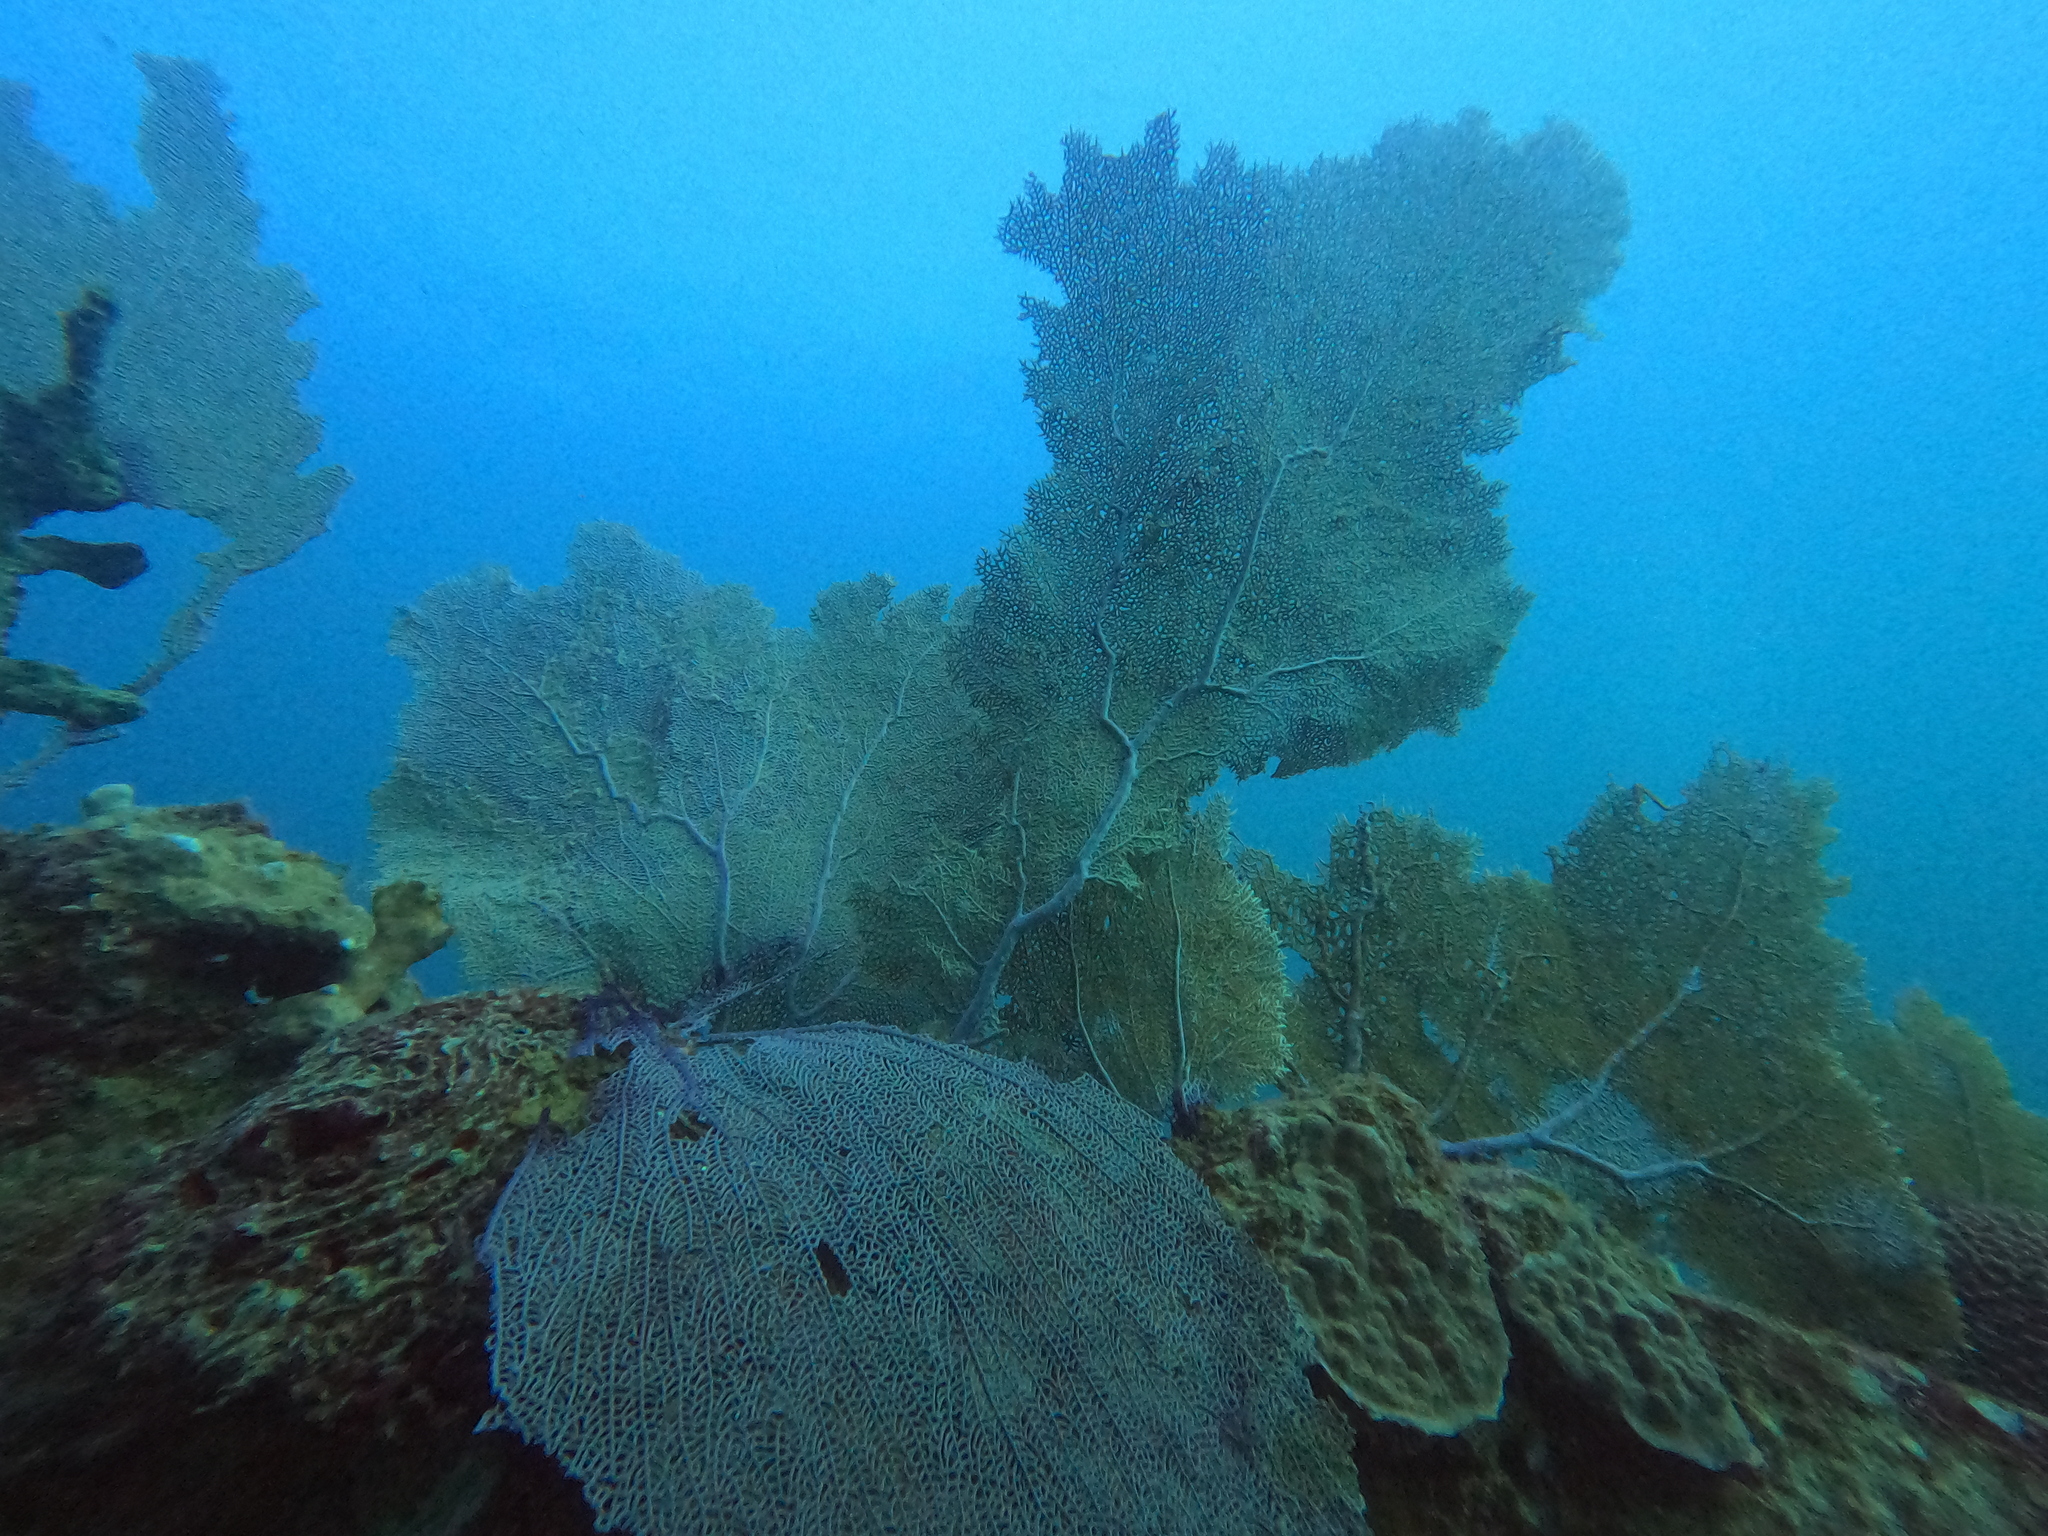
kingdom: Animalia
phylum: Cnidaria
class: Anthozoa
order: Malacalcyonacea
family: Gorgoniidae
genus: Gorgonia
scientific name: Gorgonia ventalina
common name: Common sea fan
